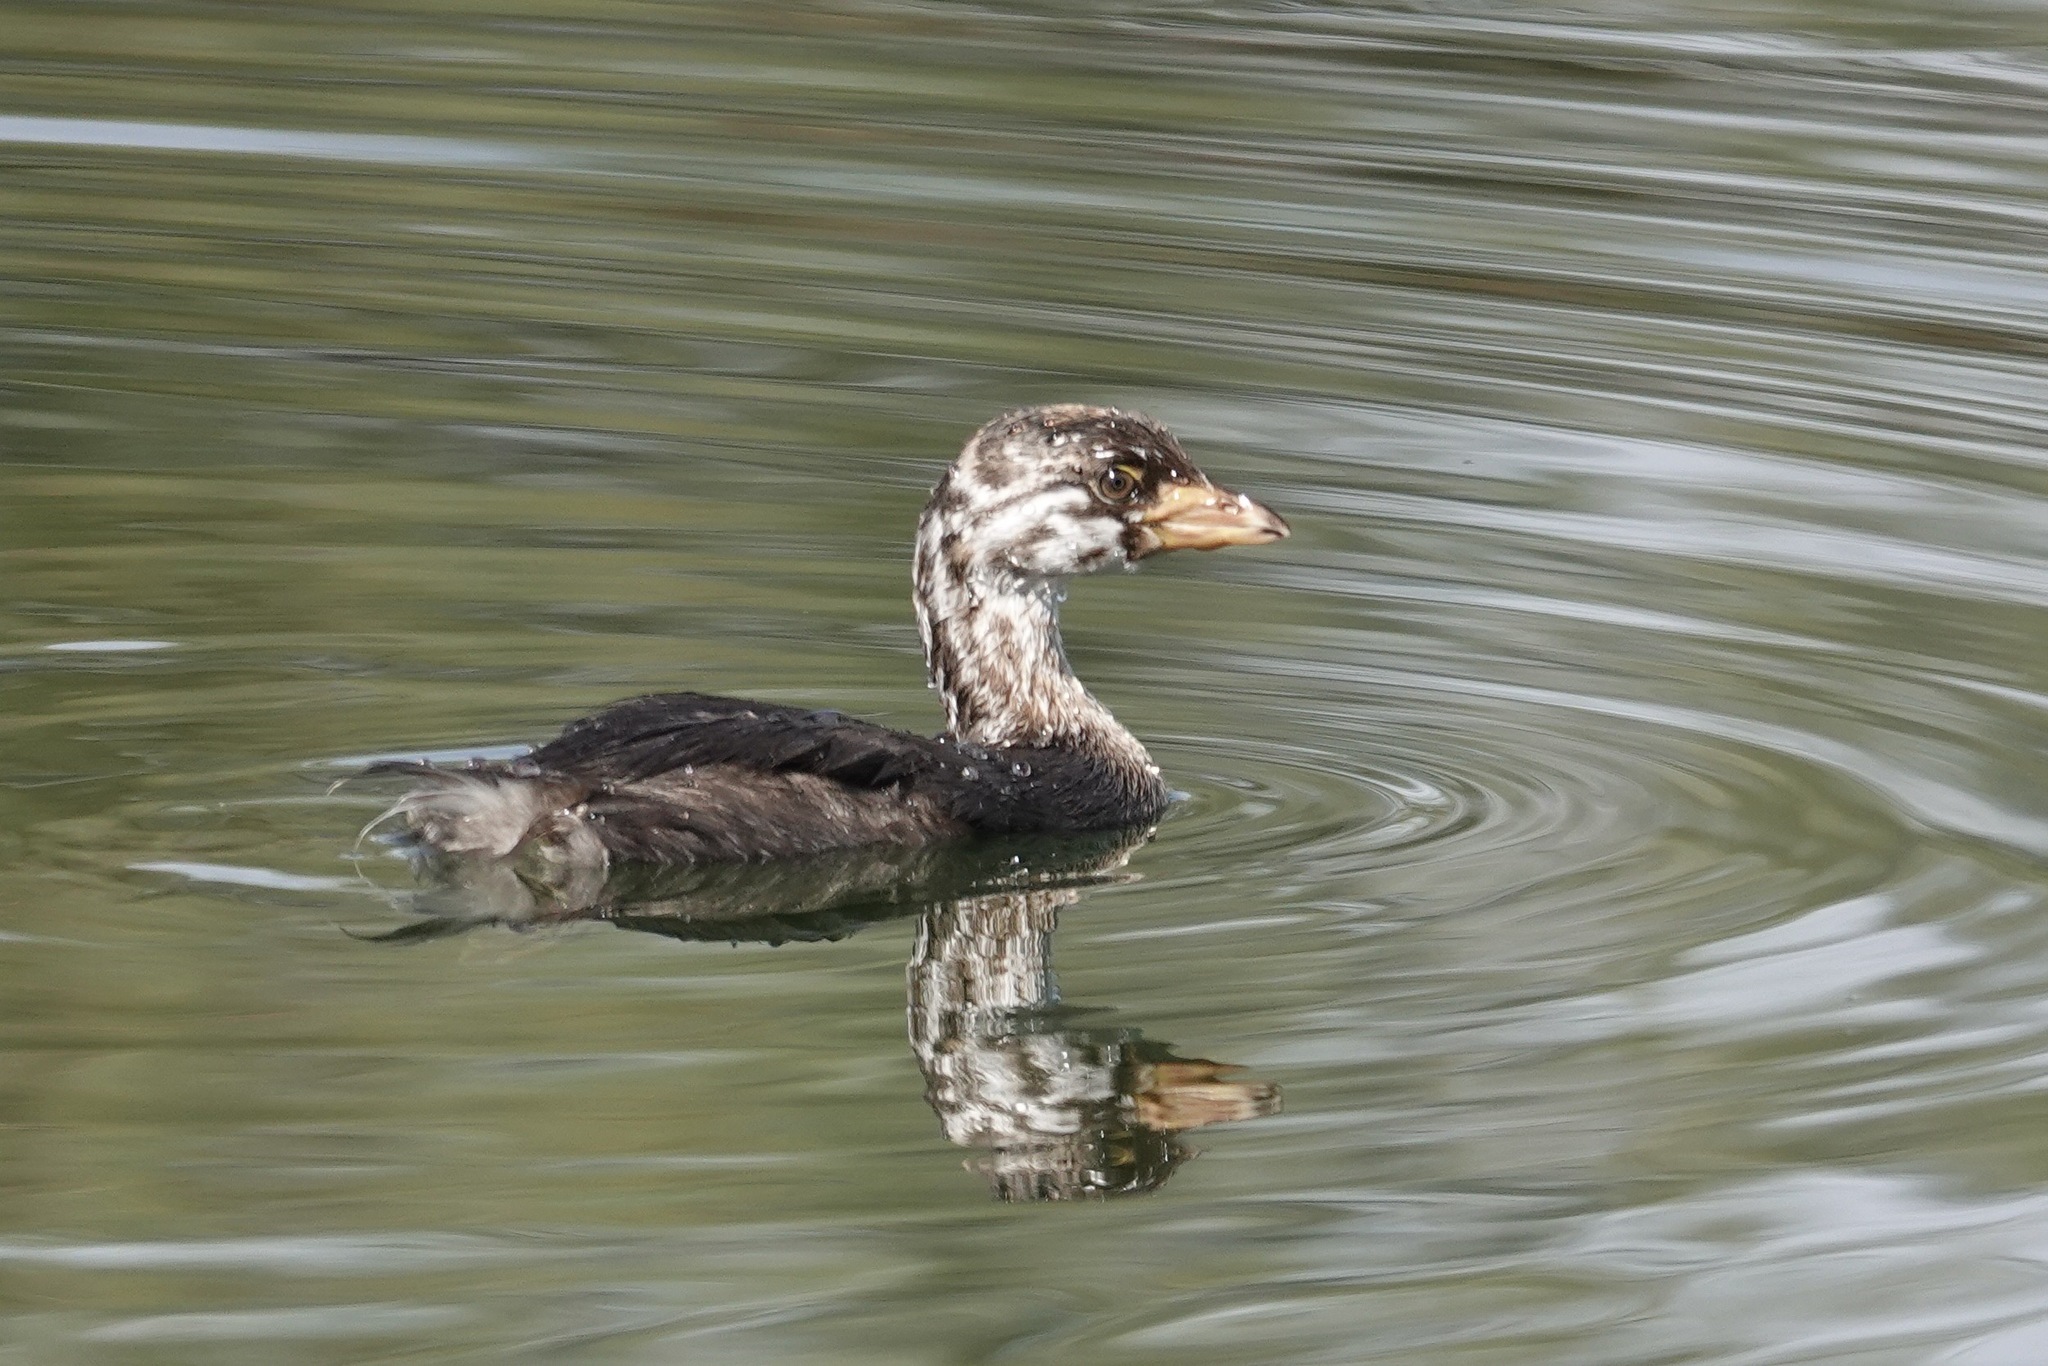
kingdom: Animalia
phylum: Chordata
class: Aves
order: Podicipediformes
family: Podicipedidae
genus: Podilymbus
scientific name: Podilymbus podiceps
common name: Pied-billed grebe
